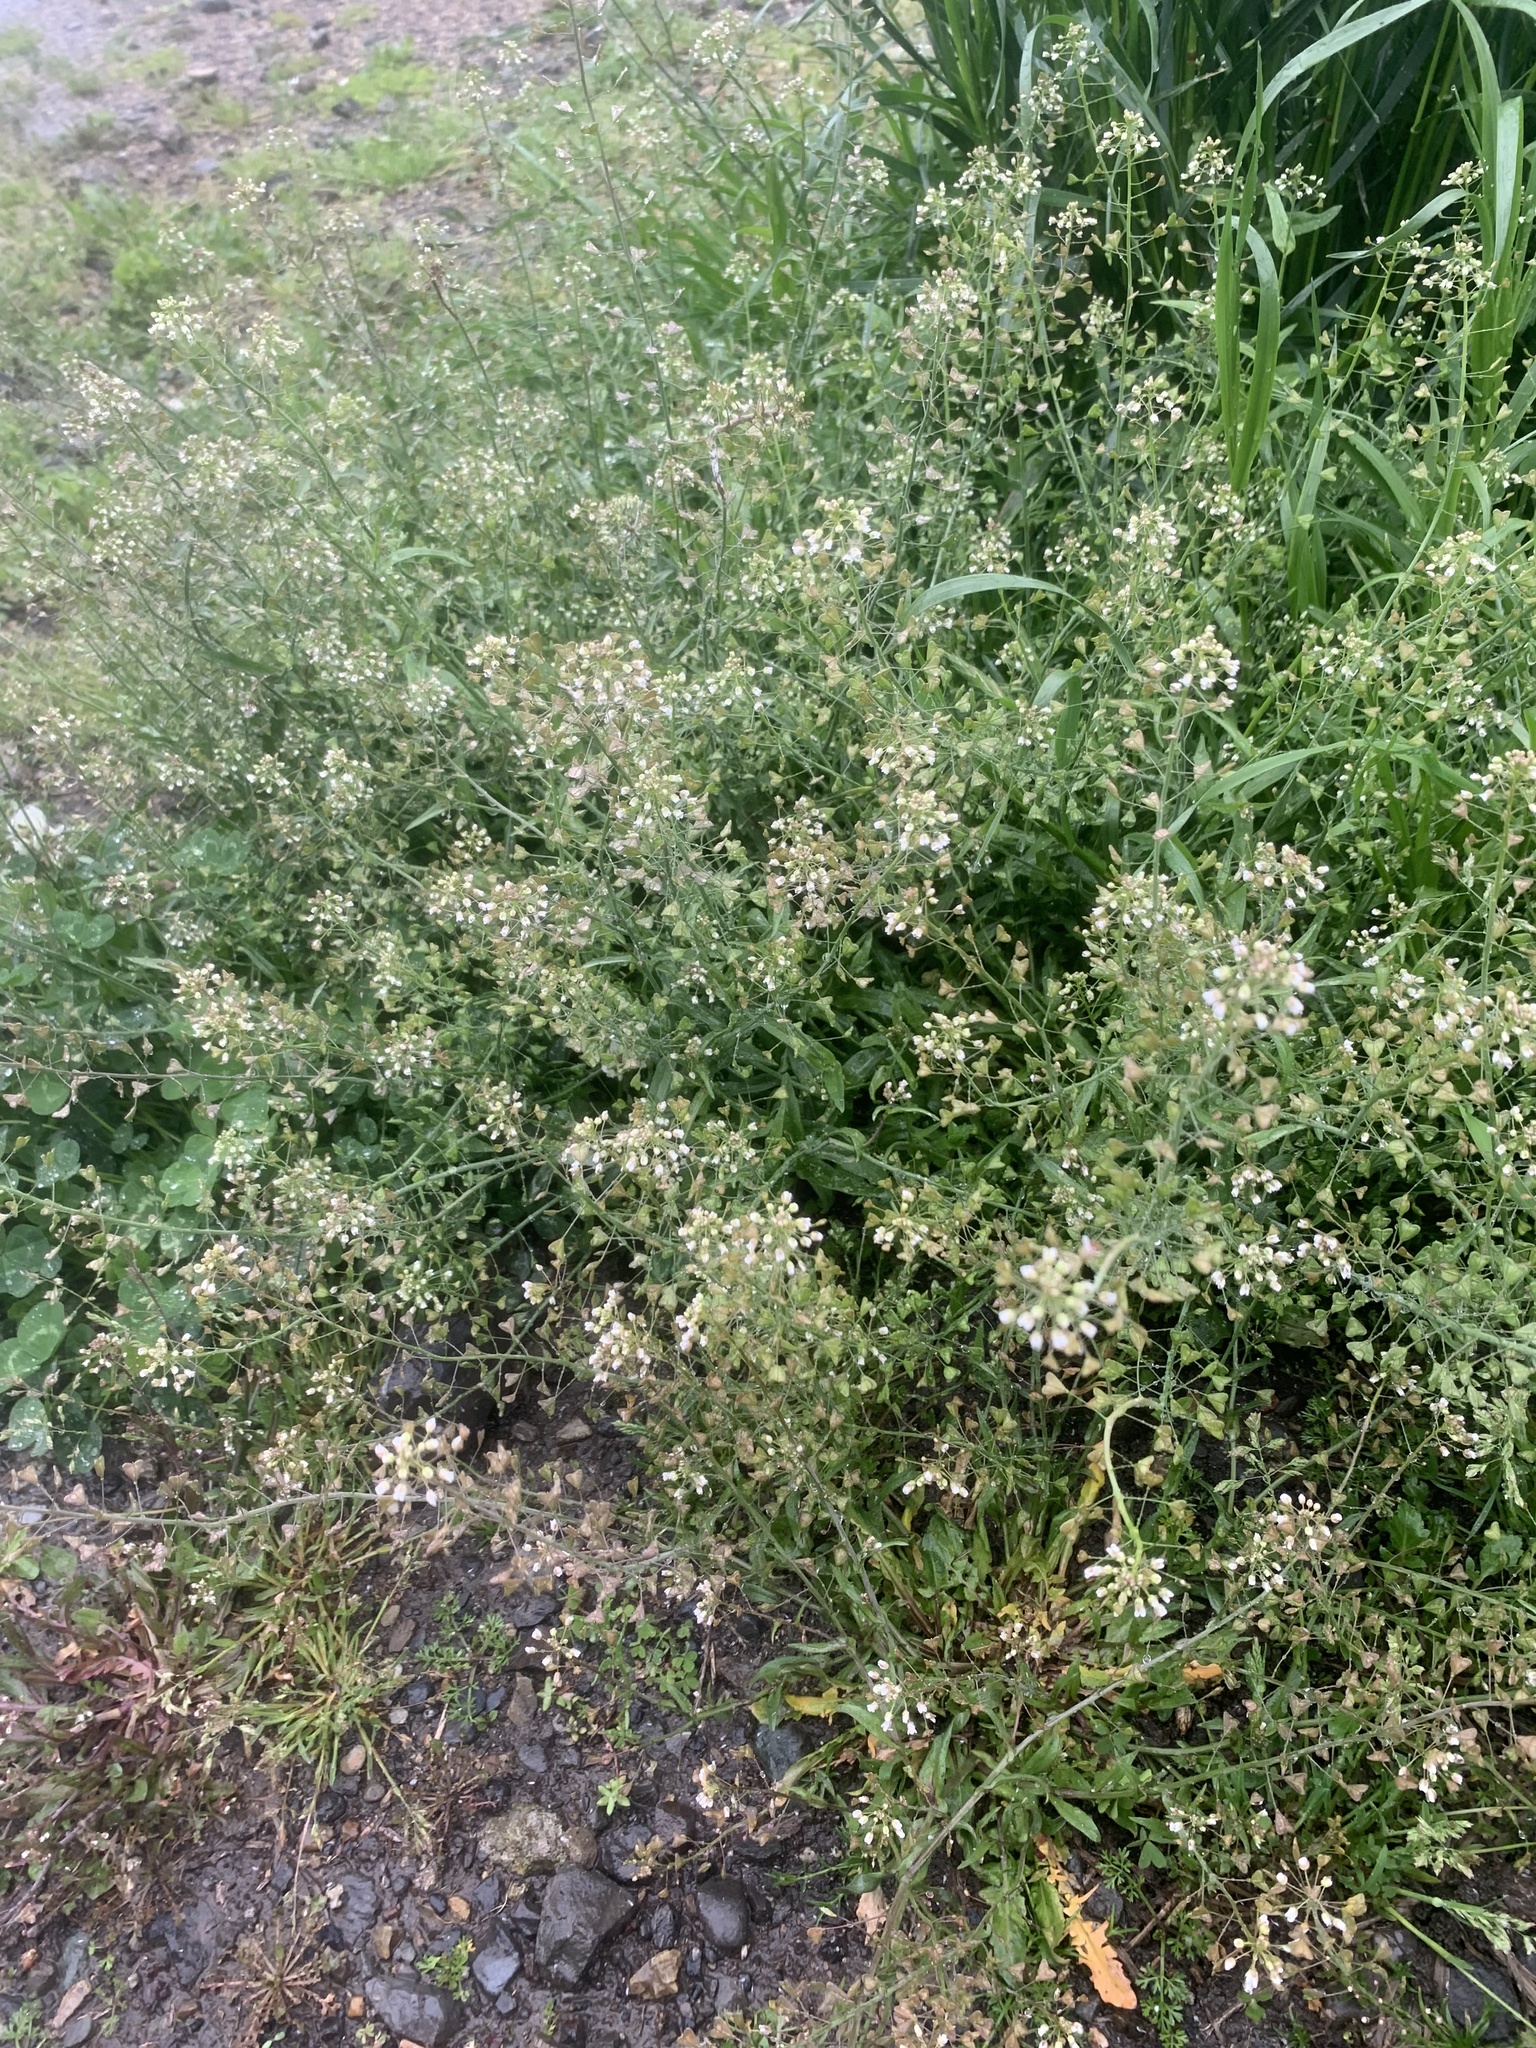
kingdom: Plantae
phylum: Tracheophyta
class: Magnoliopsida
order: Brassicales
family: Brassicaceae
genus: Capsella
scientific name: Capsella bursa-pastoris
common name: Shepherd's purse
